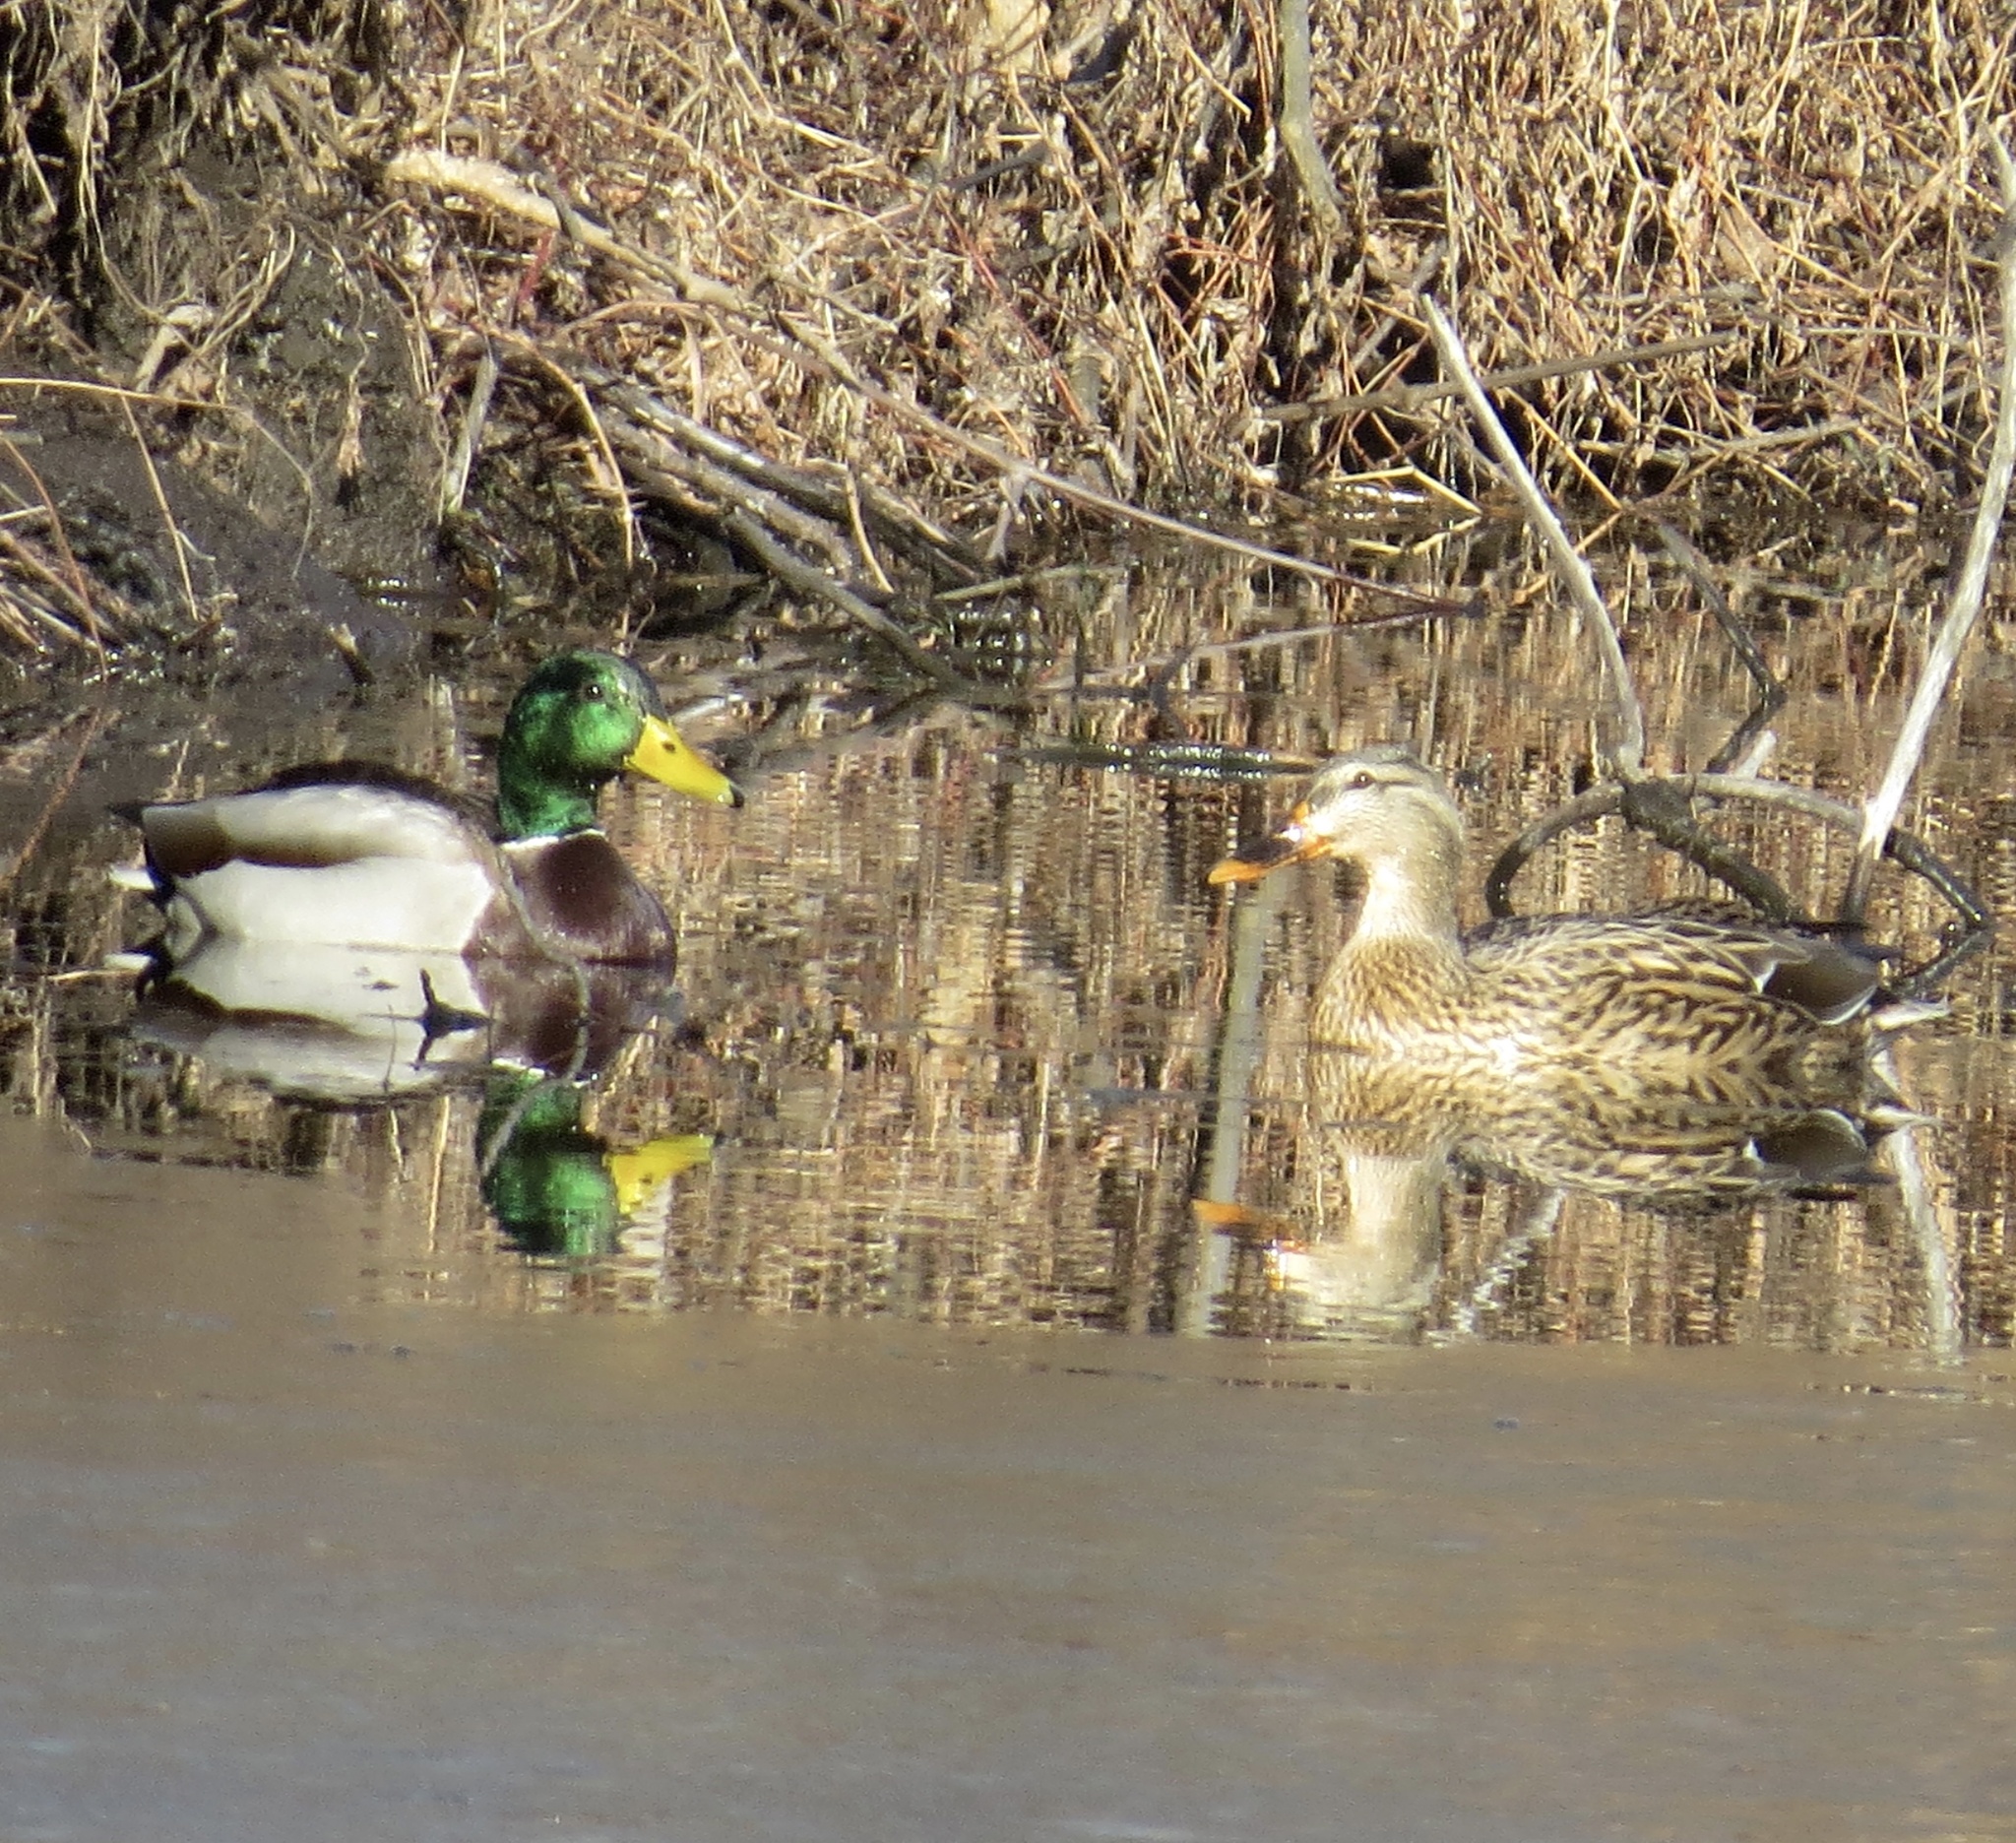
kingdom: Animalia
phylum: Chordata
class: Aves
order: Anseriformes
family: Anatidae
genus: Anas
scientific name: Anas platyrhynchos
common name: Mallard
